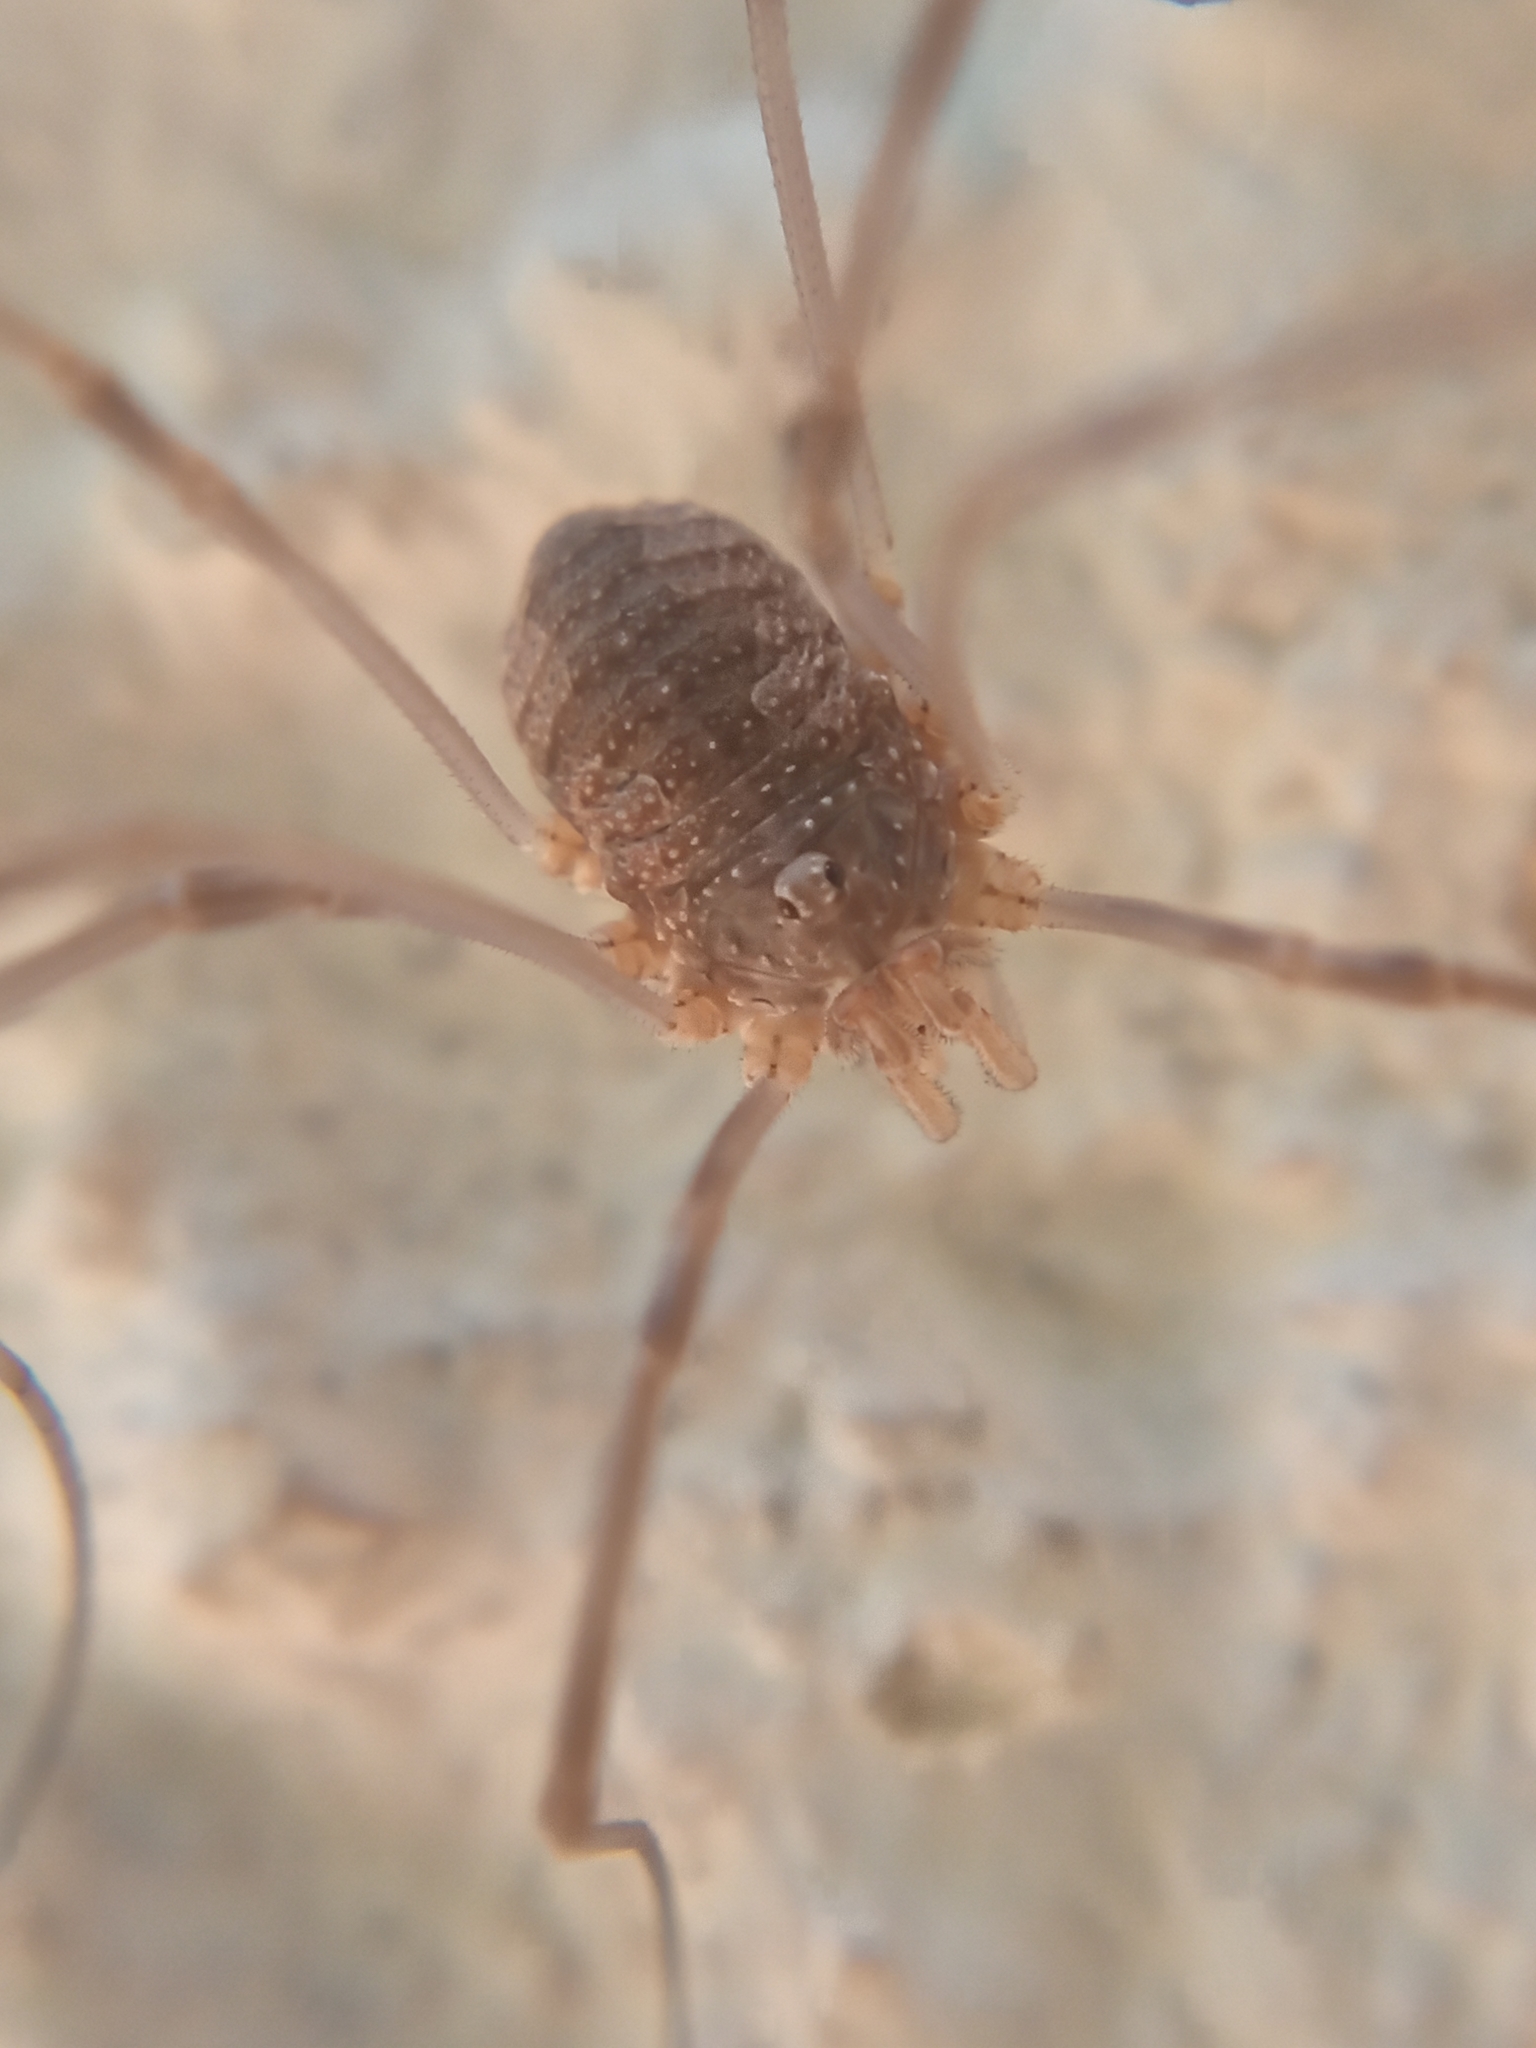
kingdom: Animalia
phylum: Arthropoda
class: Arachnida
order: Opiliones
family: Phalangiidae
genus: Phalangium
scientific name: Phalangium opilio
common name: Daddy longleg
